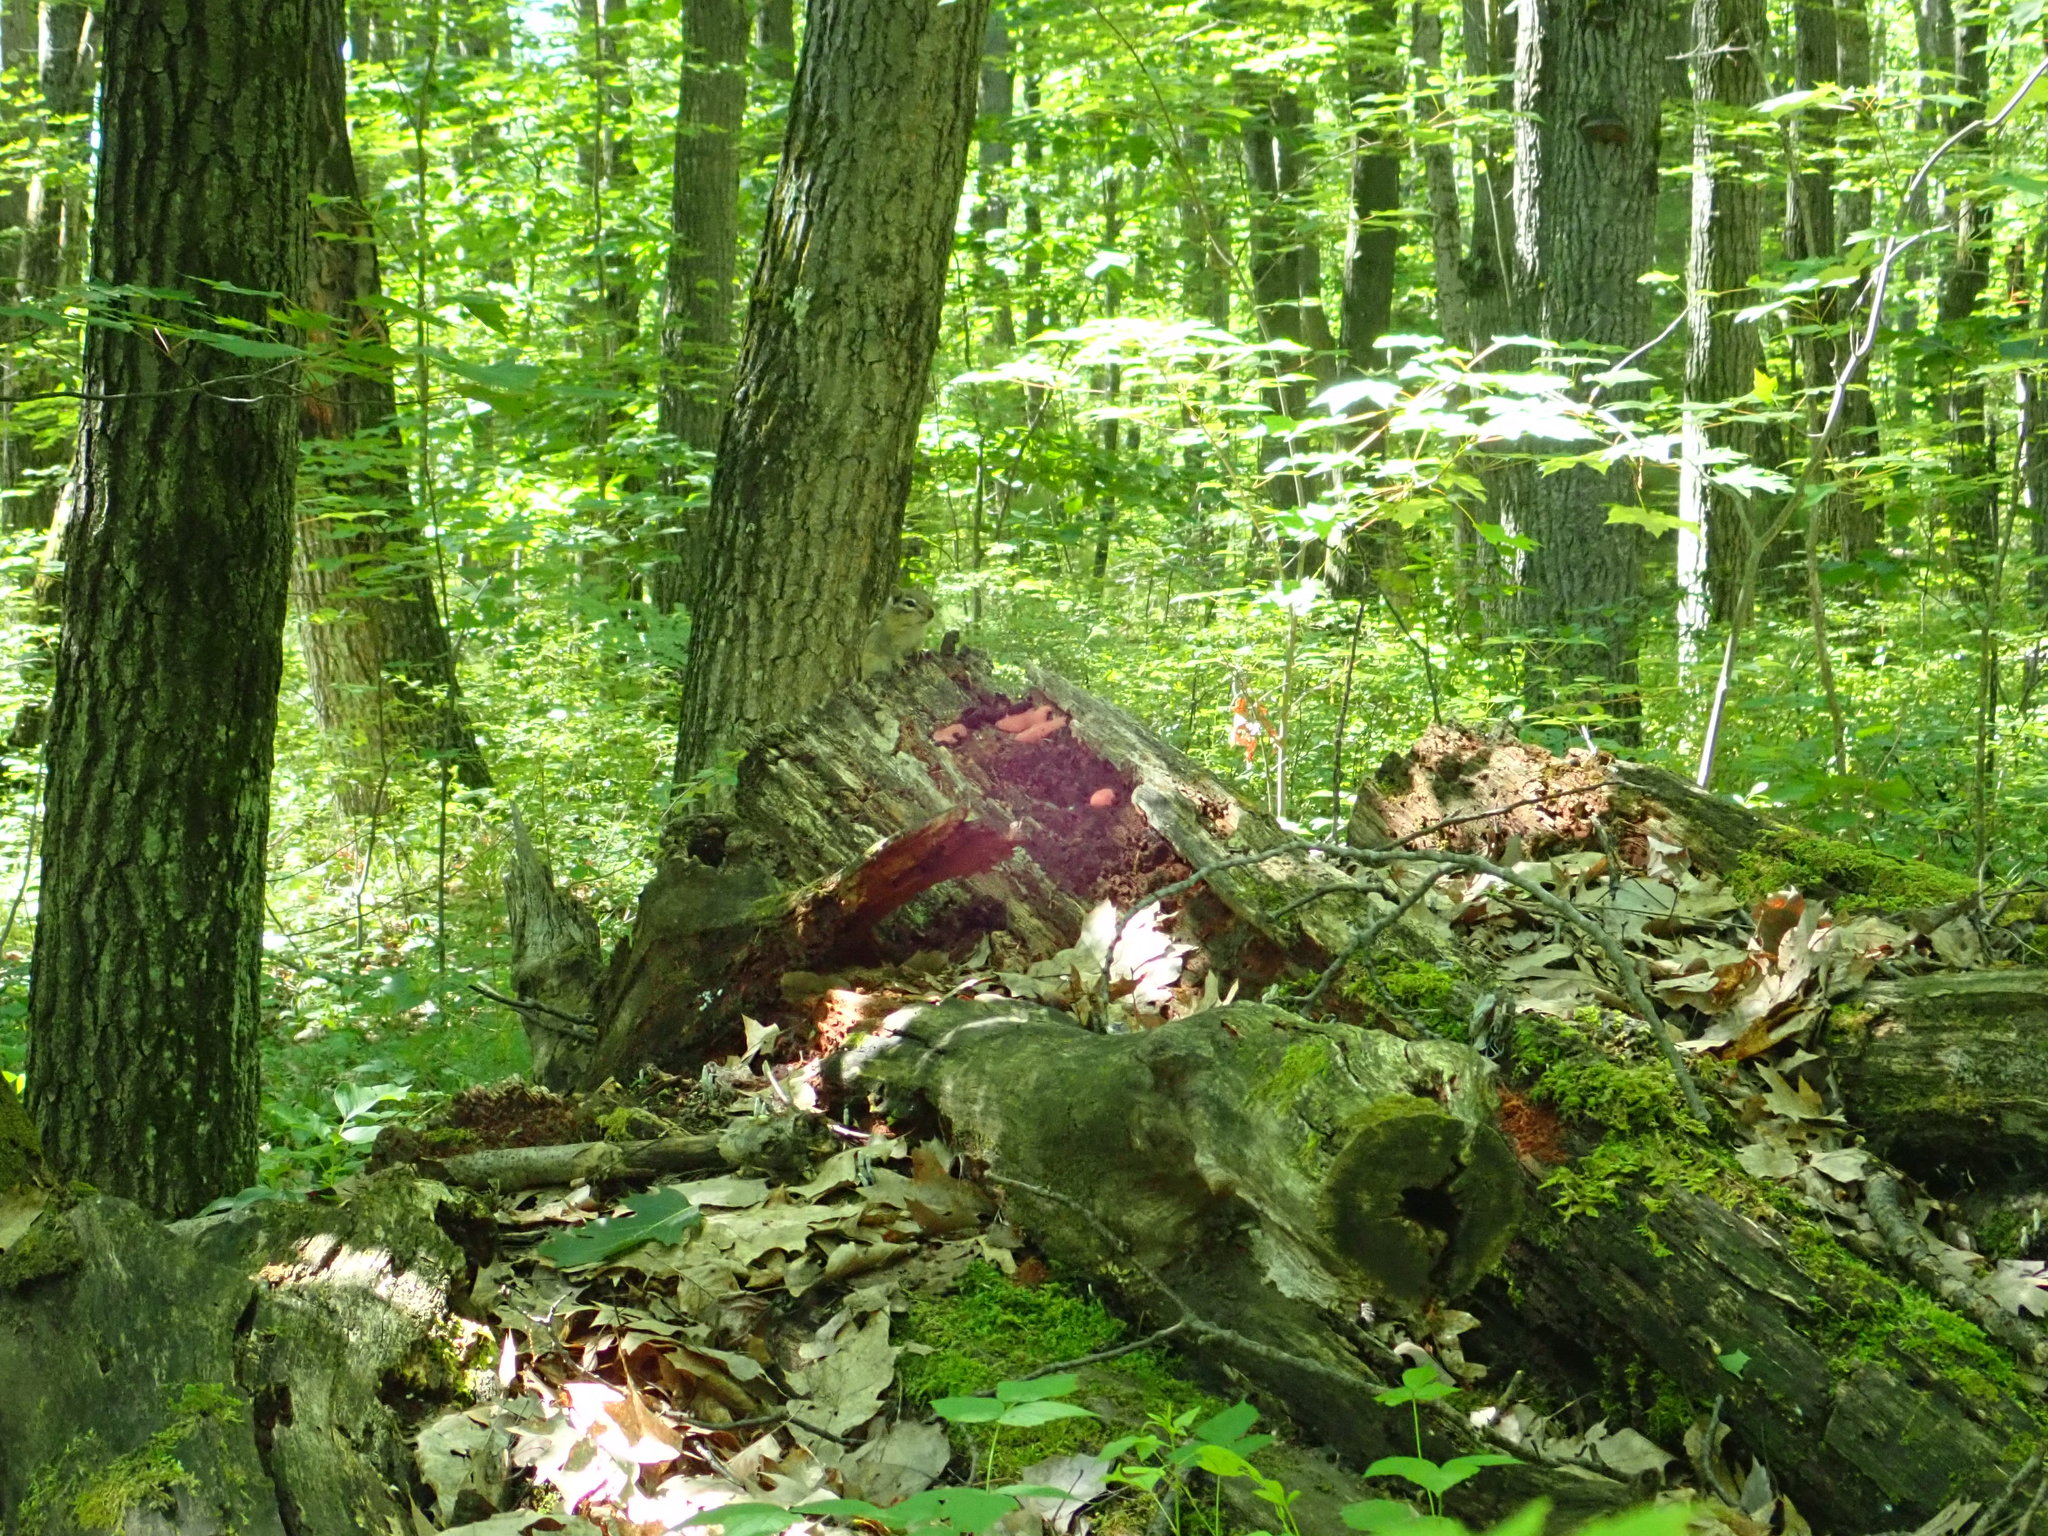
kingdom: Animalia
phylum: Chordata
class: Mammalia
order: Rodentia
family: Sciuridae
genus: Tamias
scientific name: Tamias striatus
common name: Eastern chipmunk
